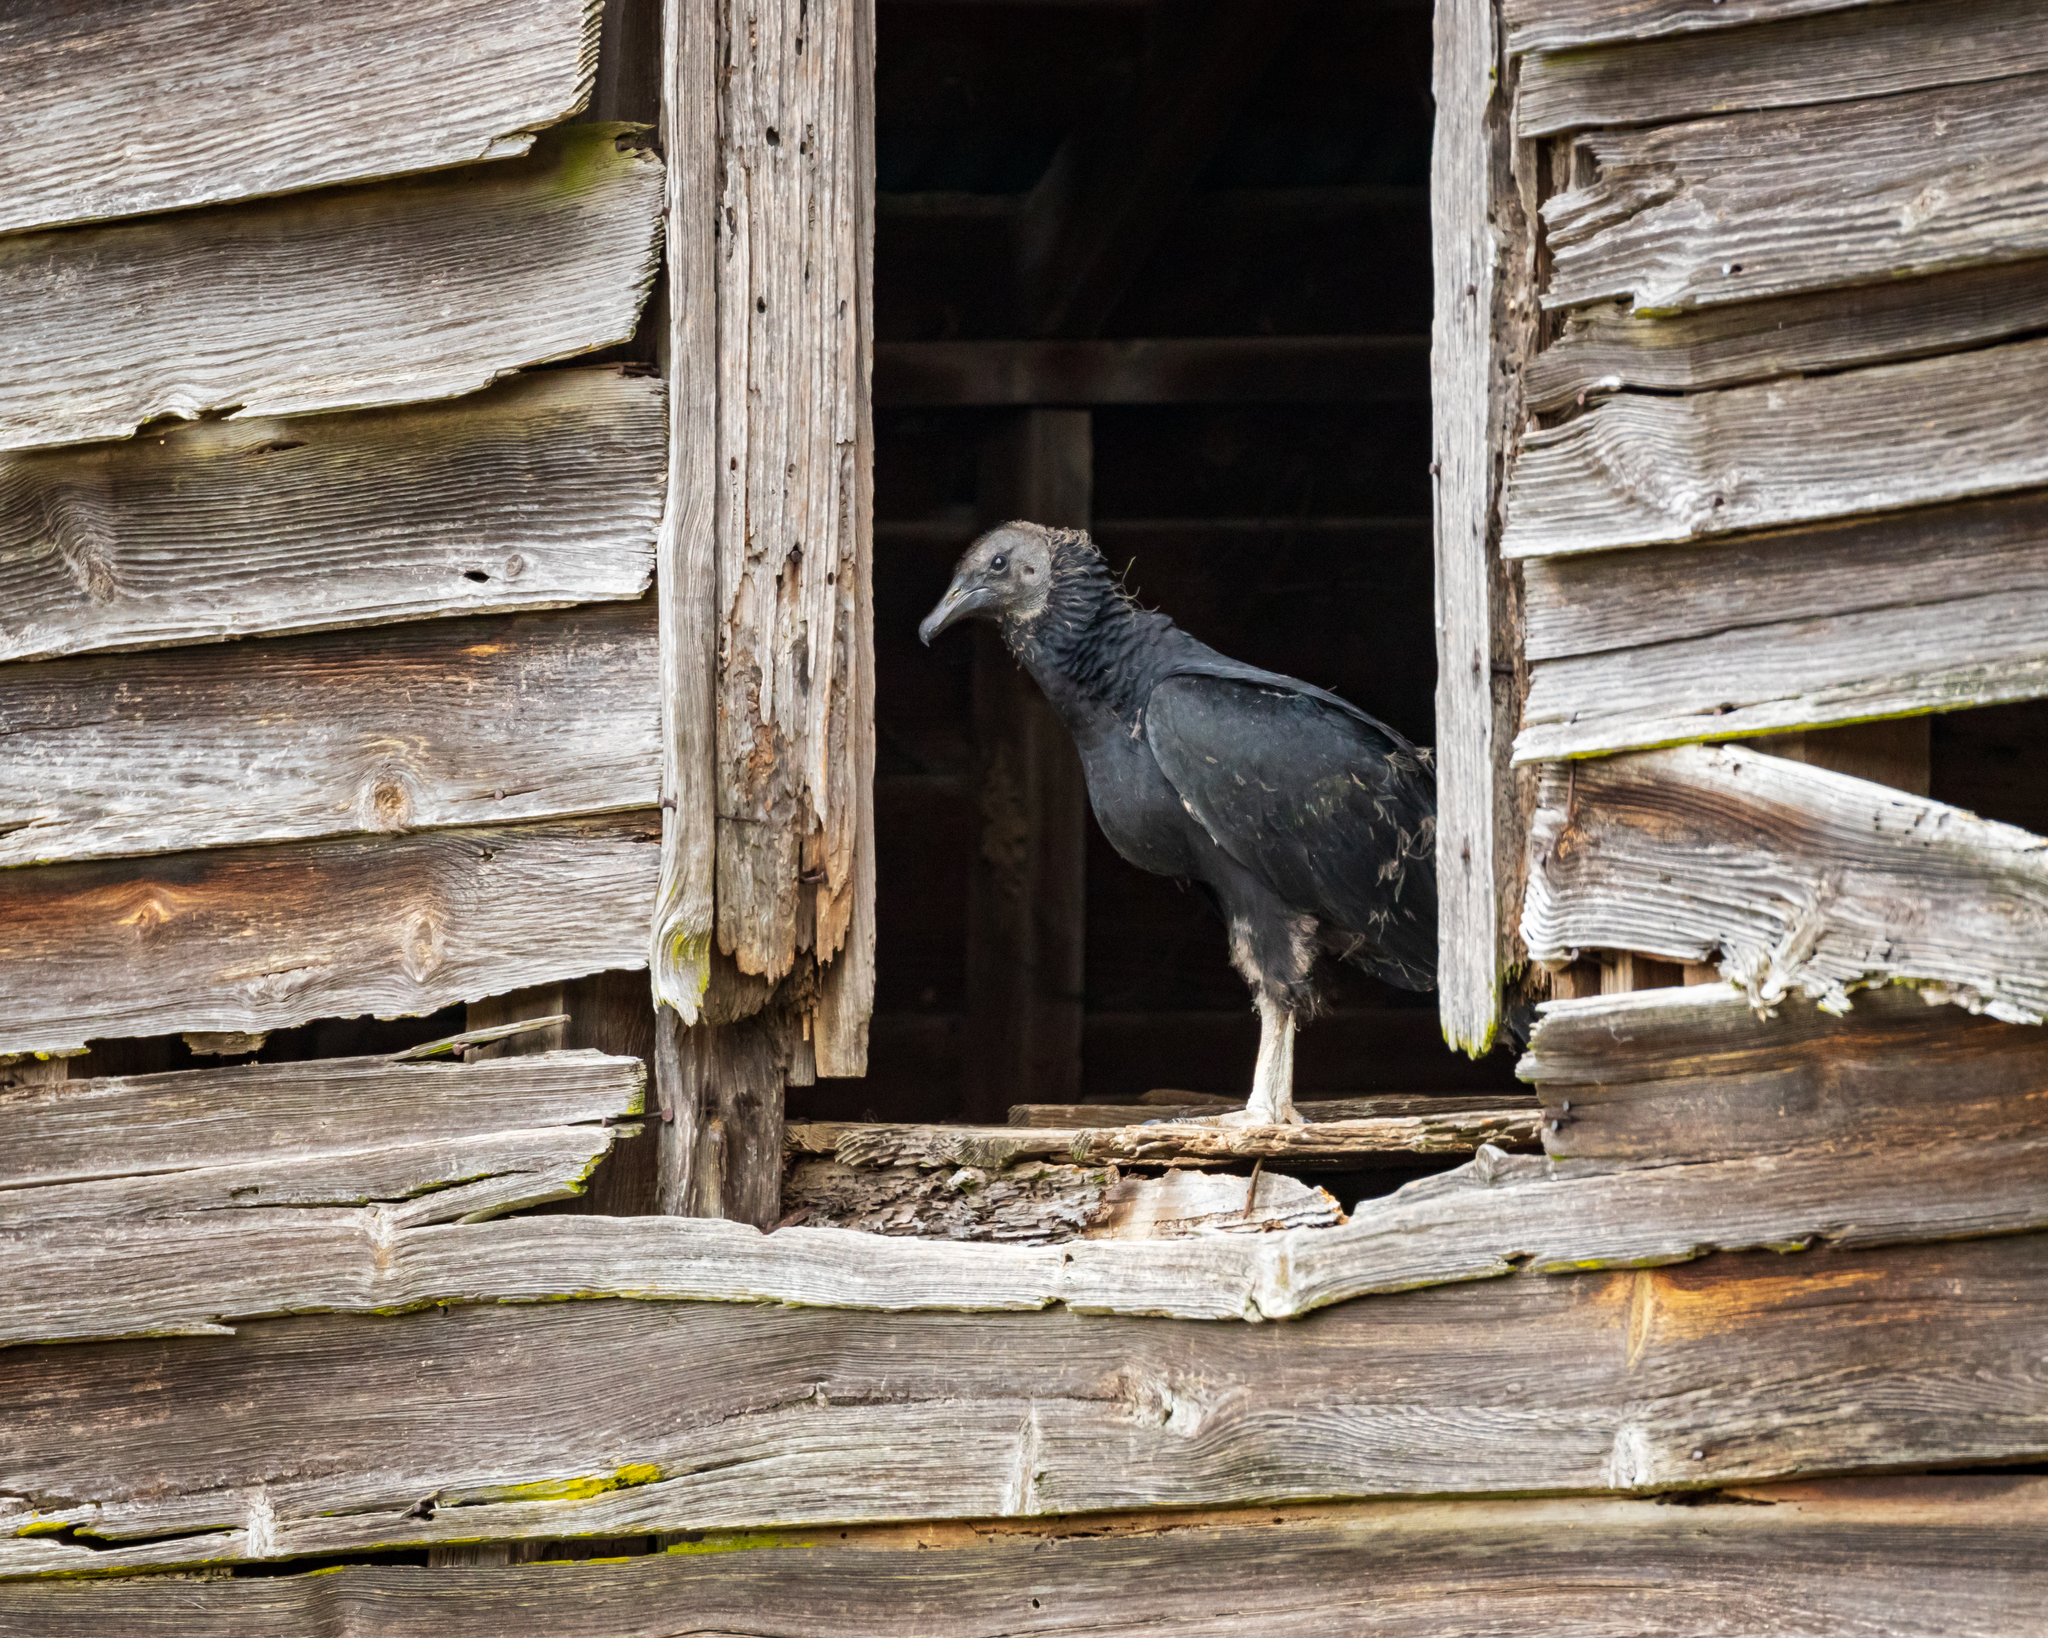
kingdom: Animalia
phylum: Chordata
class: Aves
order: Accipitriformes
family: Cathartidae
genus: Coragyps
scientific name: Coragyps atratus
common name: Black vulture
